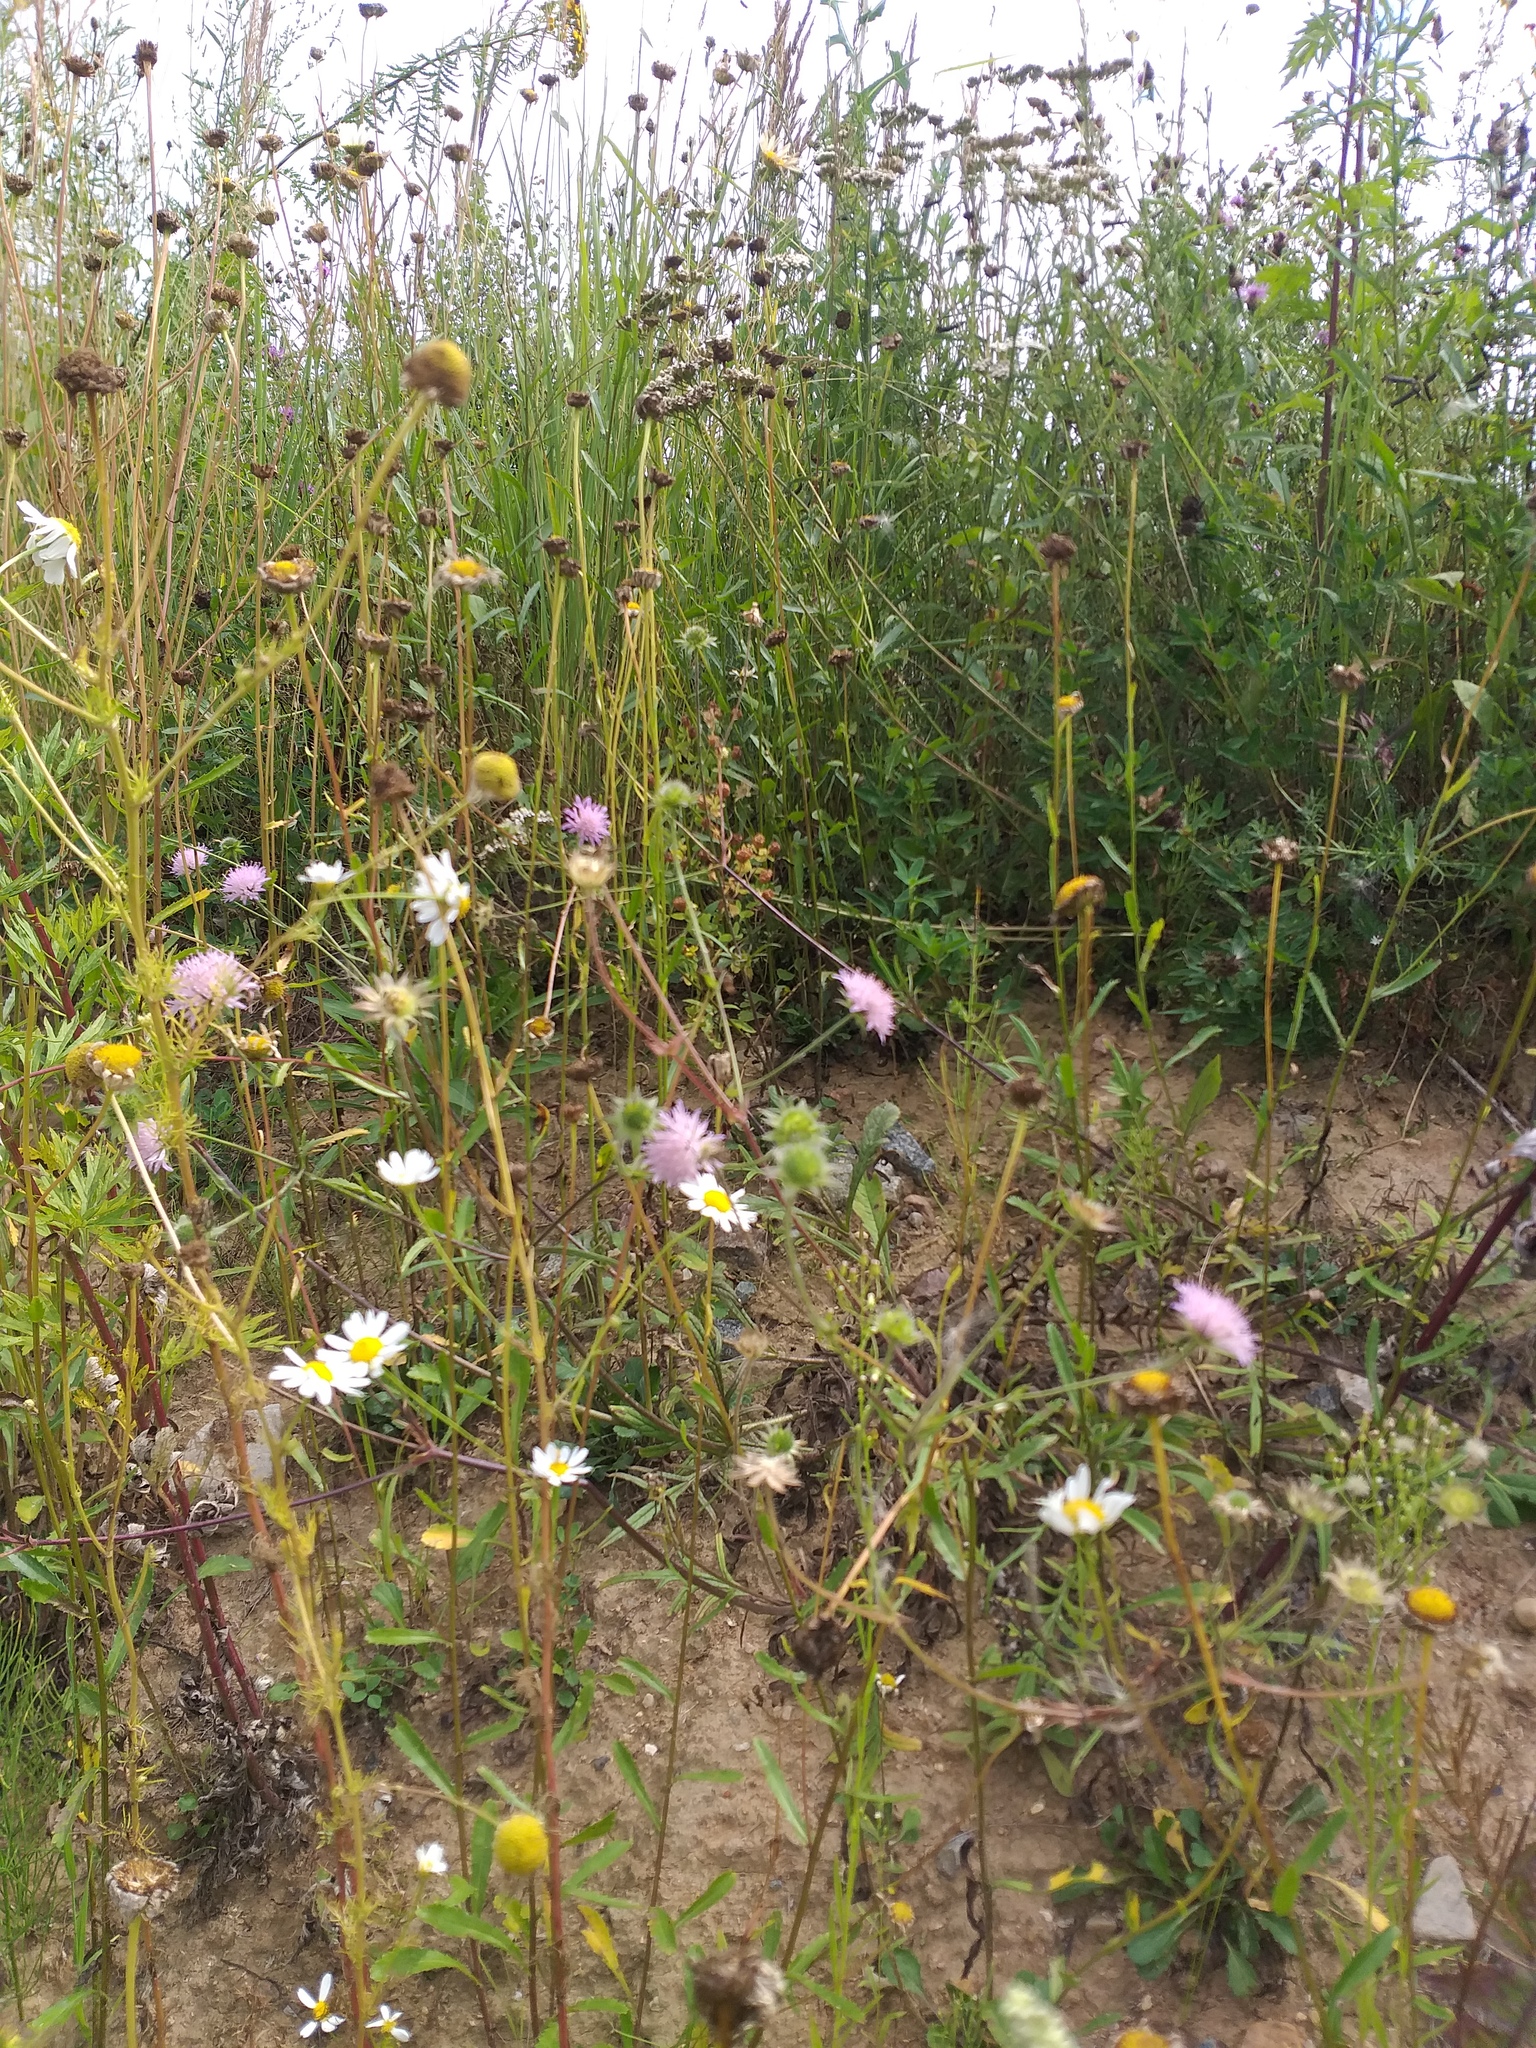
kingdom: Plantae
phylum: Tracheophyta
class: Magnoliopsida
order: Asterales
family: Asteraceae
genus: Leucanthemum
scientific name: Leucanthemum vulgare
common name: Oxeye daisy
